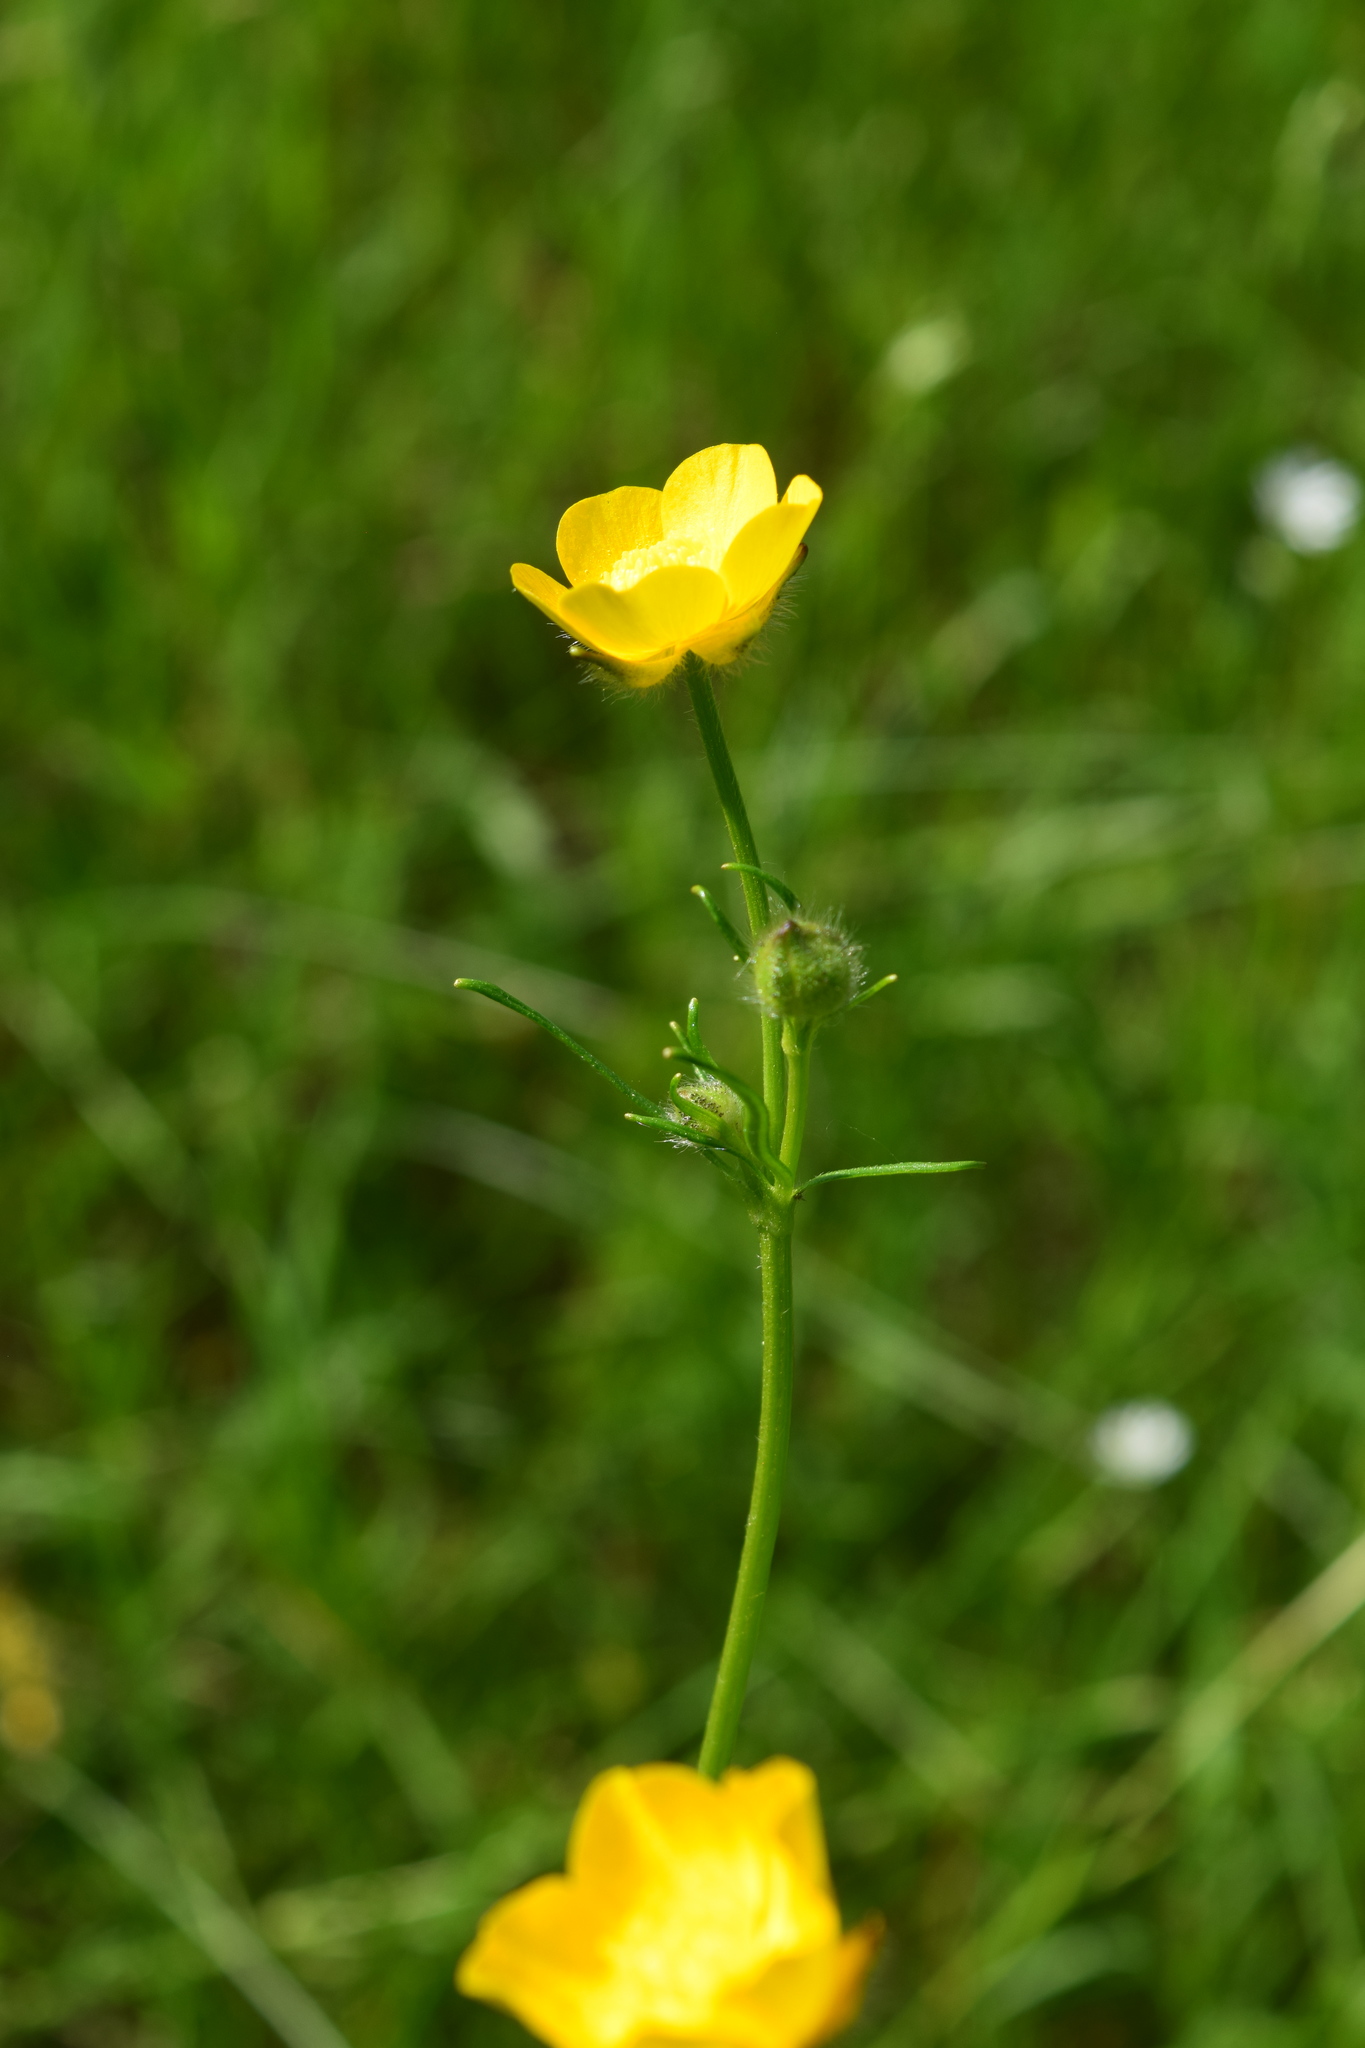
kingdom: Plantae
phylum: Tracheophyta
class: Magnoliopsida
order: Ranunculales
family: Ranunculaceae
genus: Ranunculus
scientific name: Ranunculus polyanthemos
